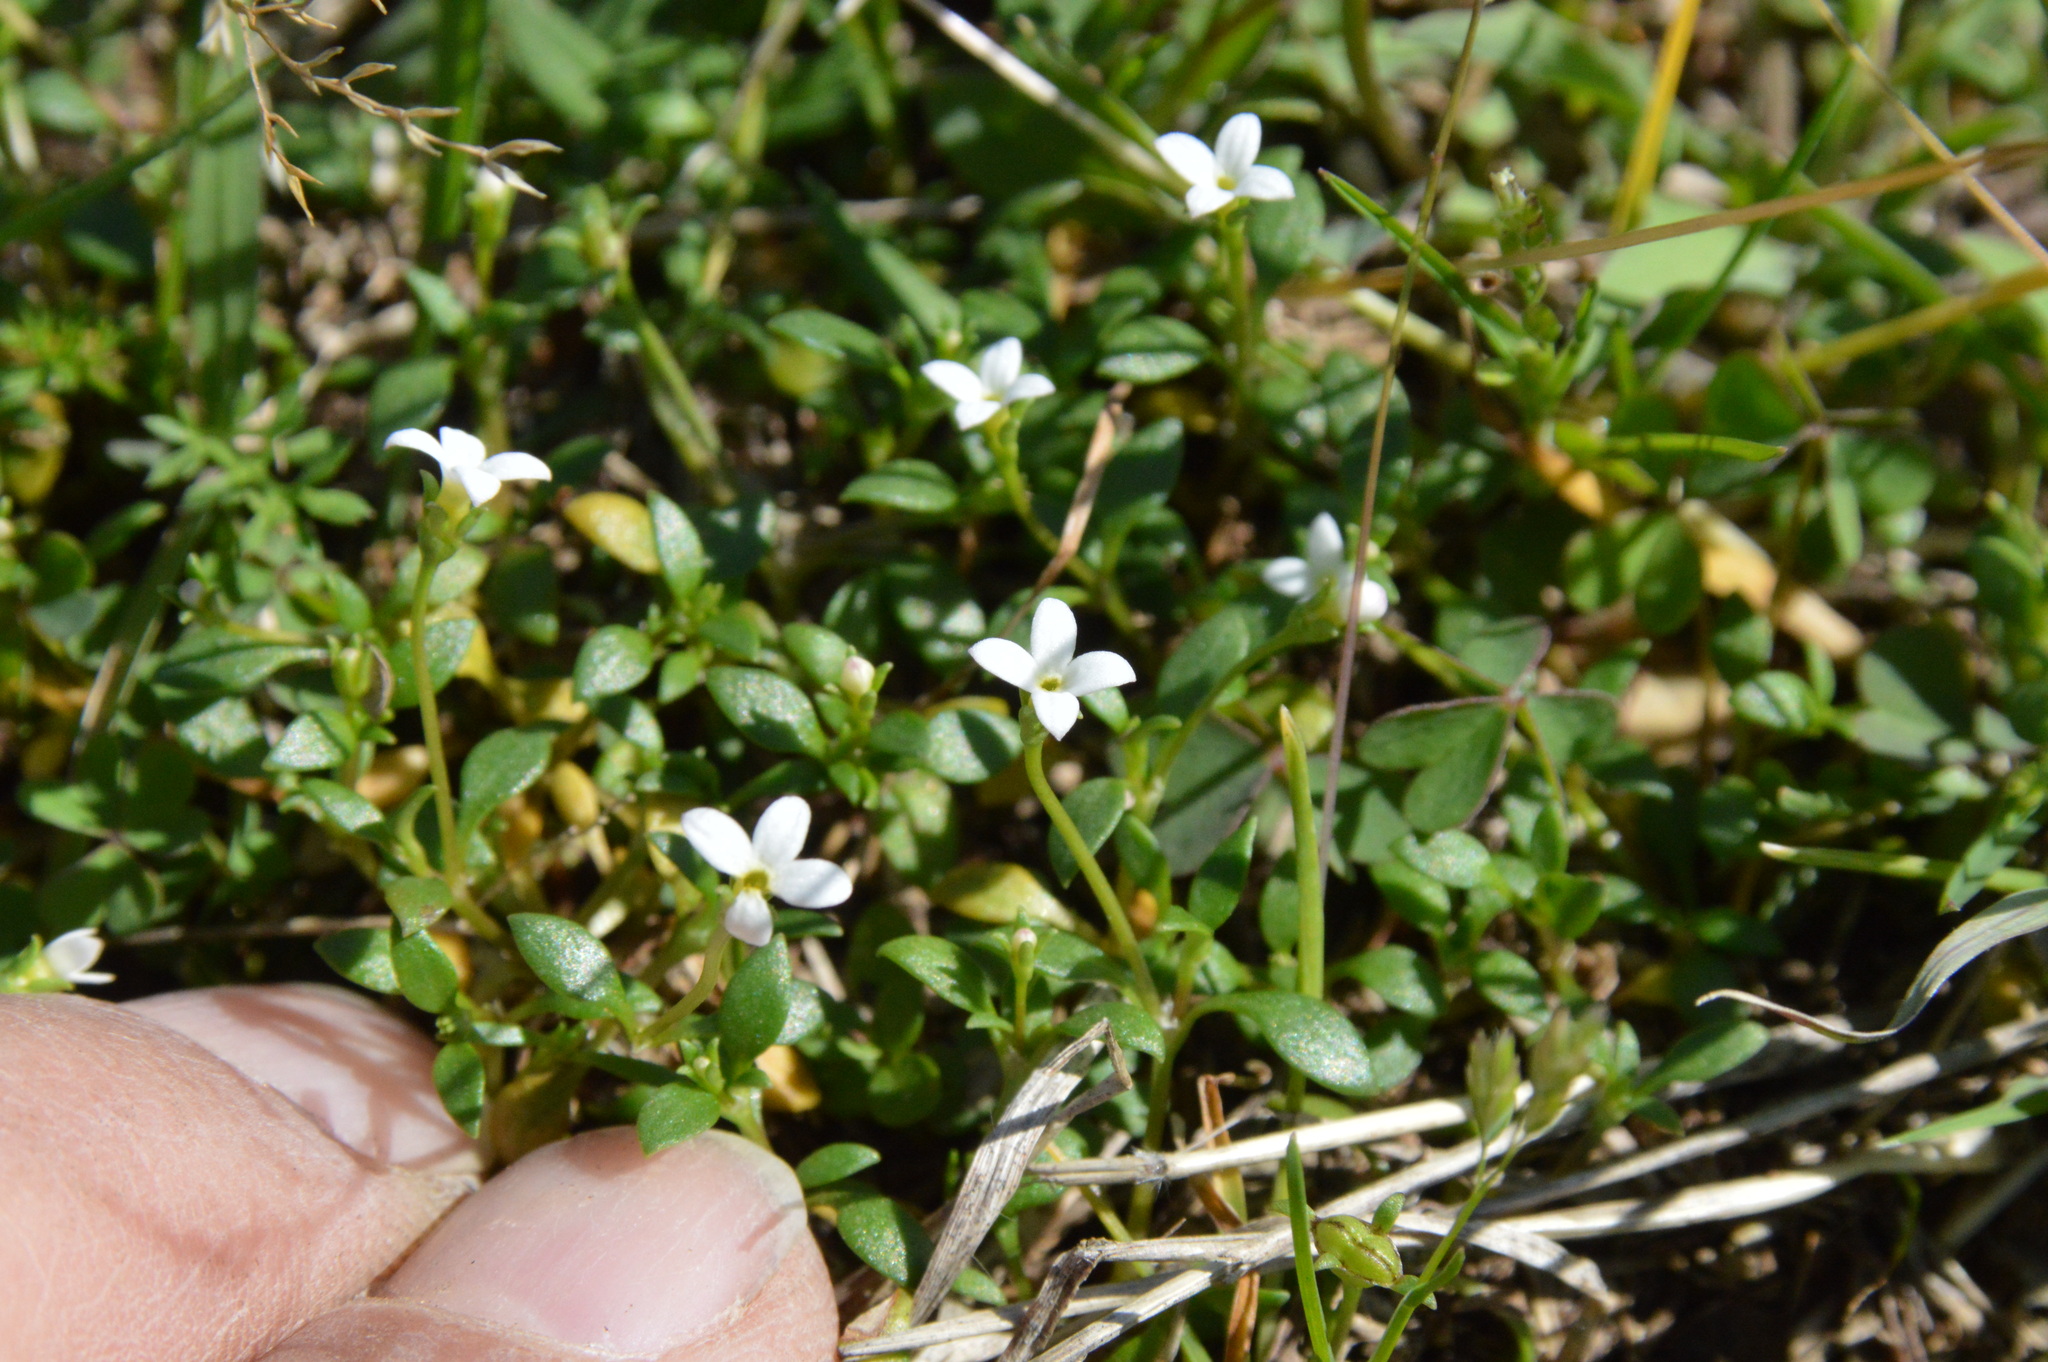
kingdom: Plantae
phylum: Tracheophyta
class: Magnoliopsida
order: Gentianales
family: Rubiaceae
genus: Houstonia
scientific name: Houstonia micrantha
